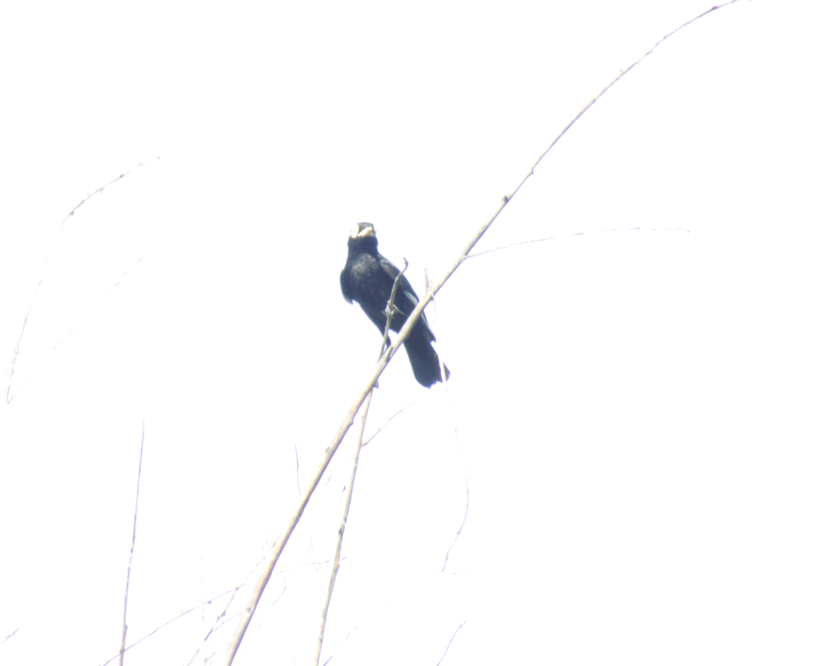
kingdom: Animalia
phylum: Chordata
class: Aves
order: Passeriformes
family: Tyrannidae
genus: Hymenops
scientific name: Hymenops perspicillatus
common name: Spectacled tyrant
